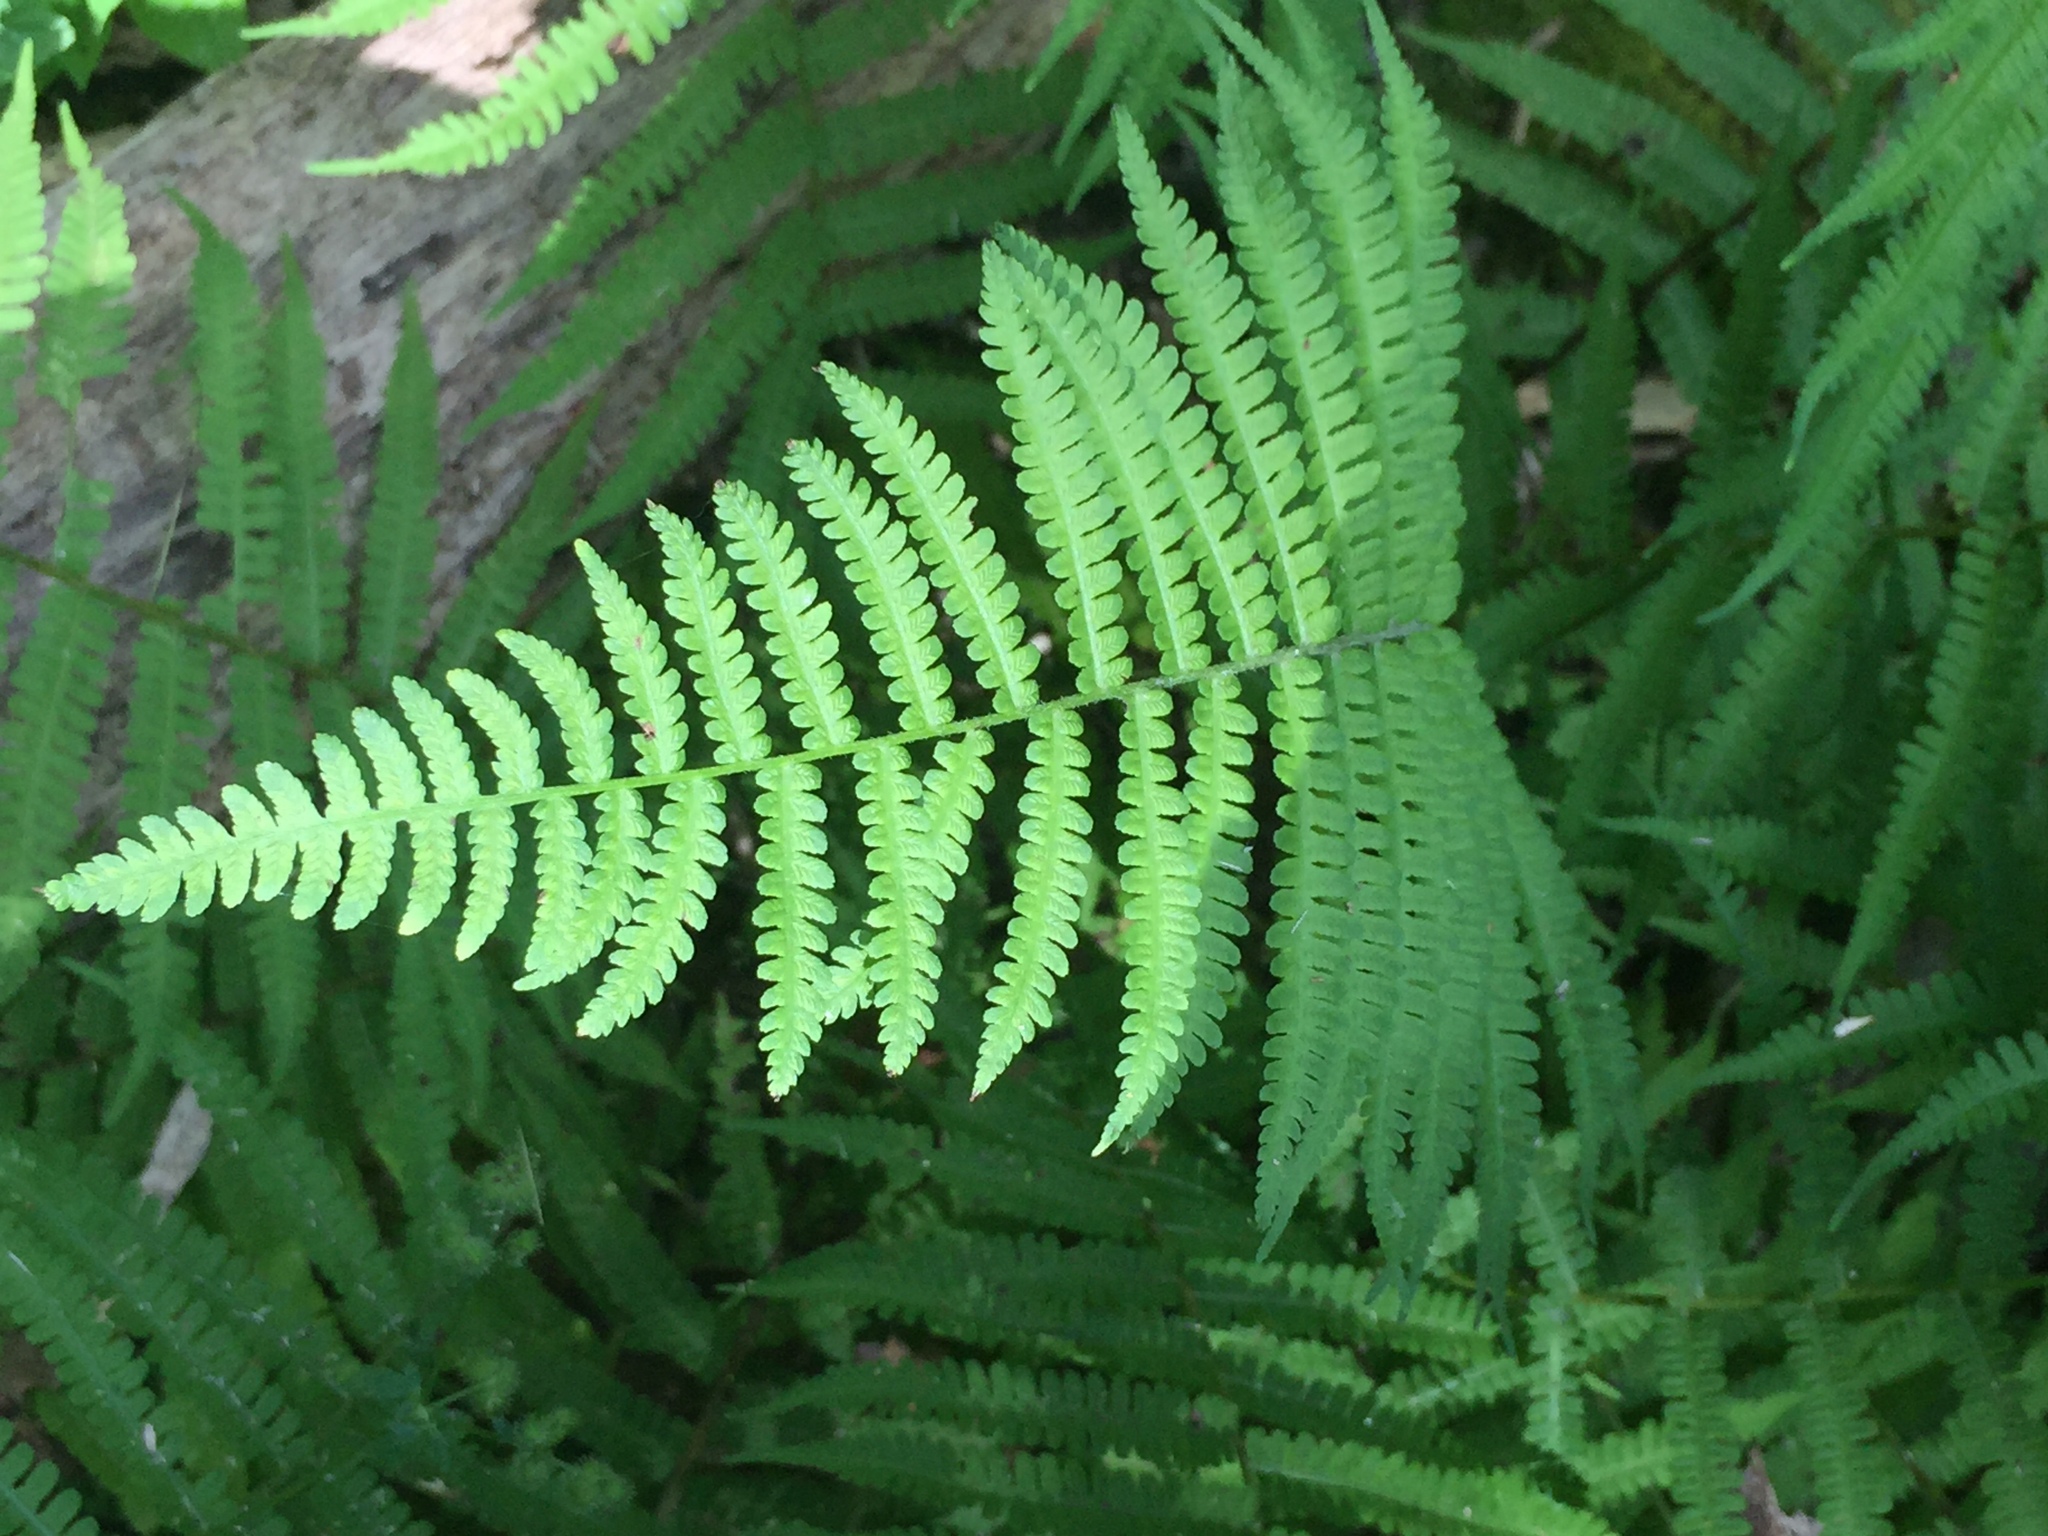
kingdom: Plantae
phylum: Tracheophyta
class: Polypodiopsida
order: Polypodiales
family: Athyriaceae
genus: Deparia
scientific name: Deparia acrostichoides
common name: Silver false spleenwort
